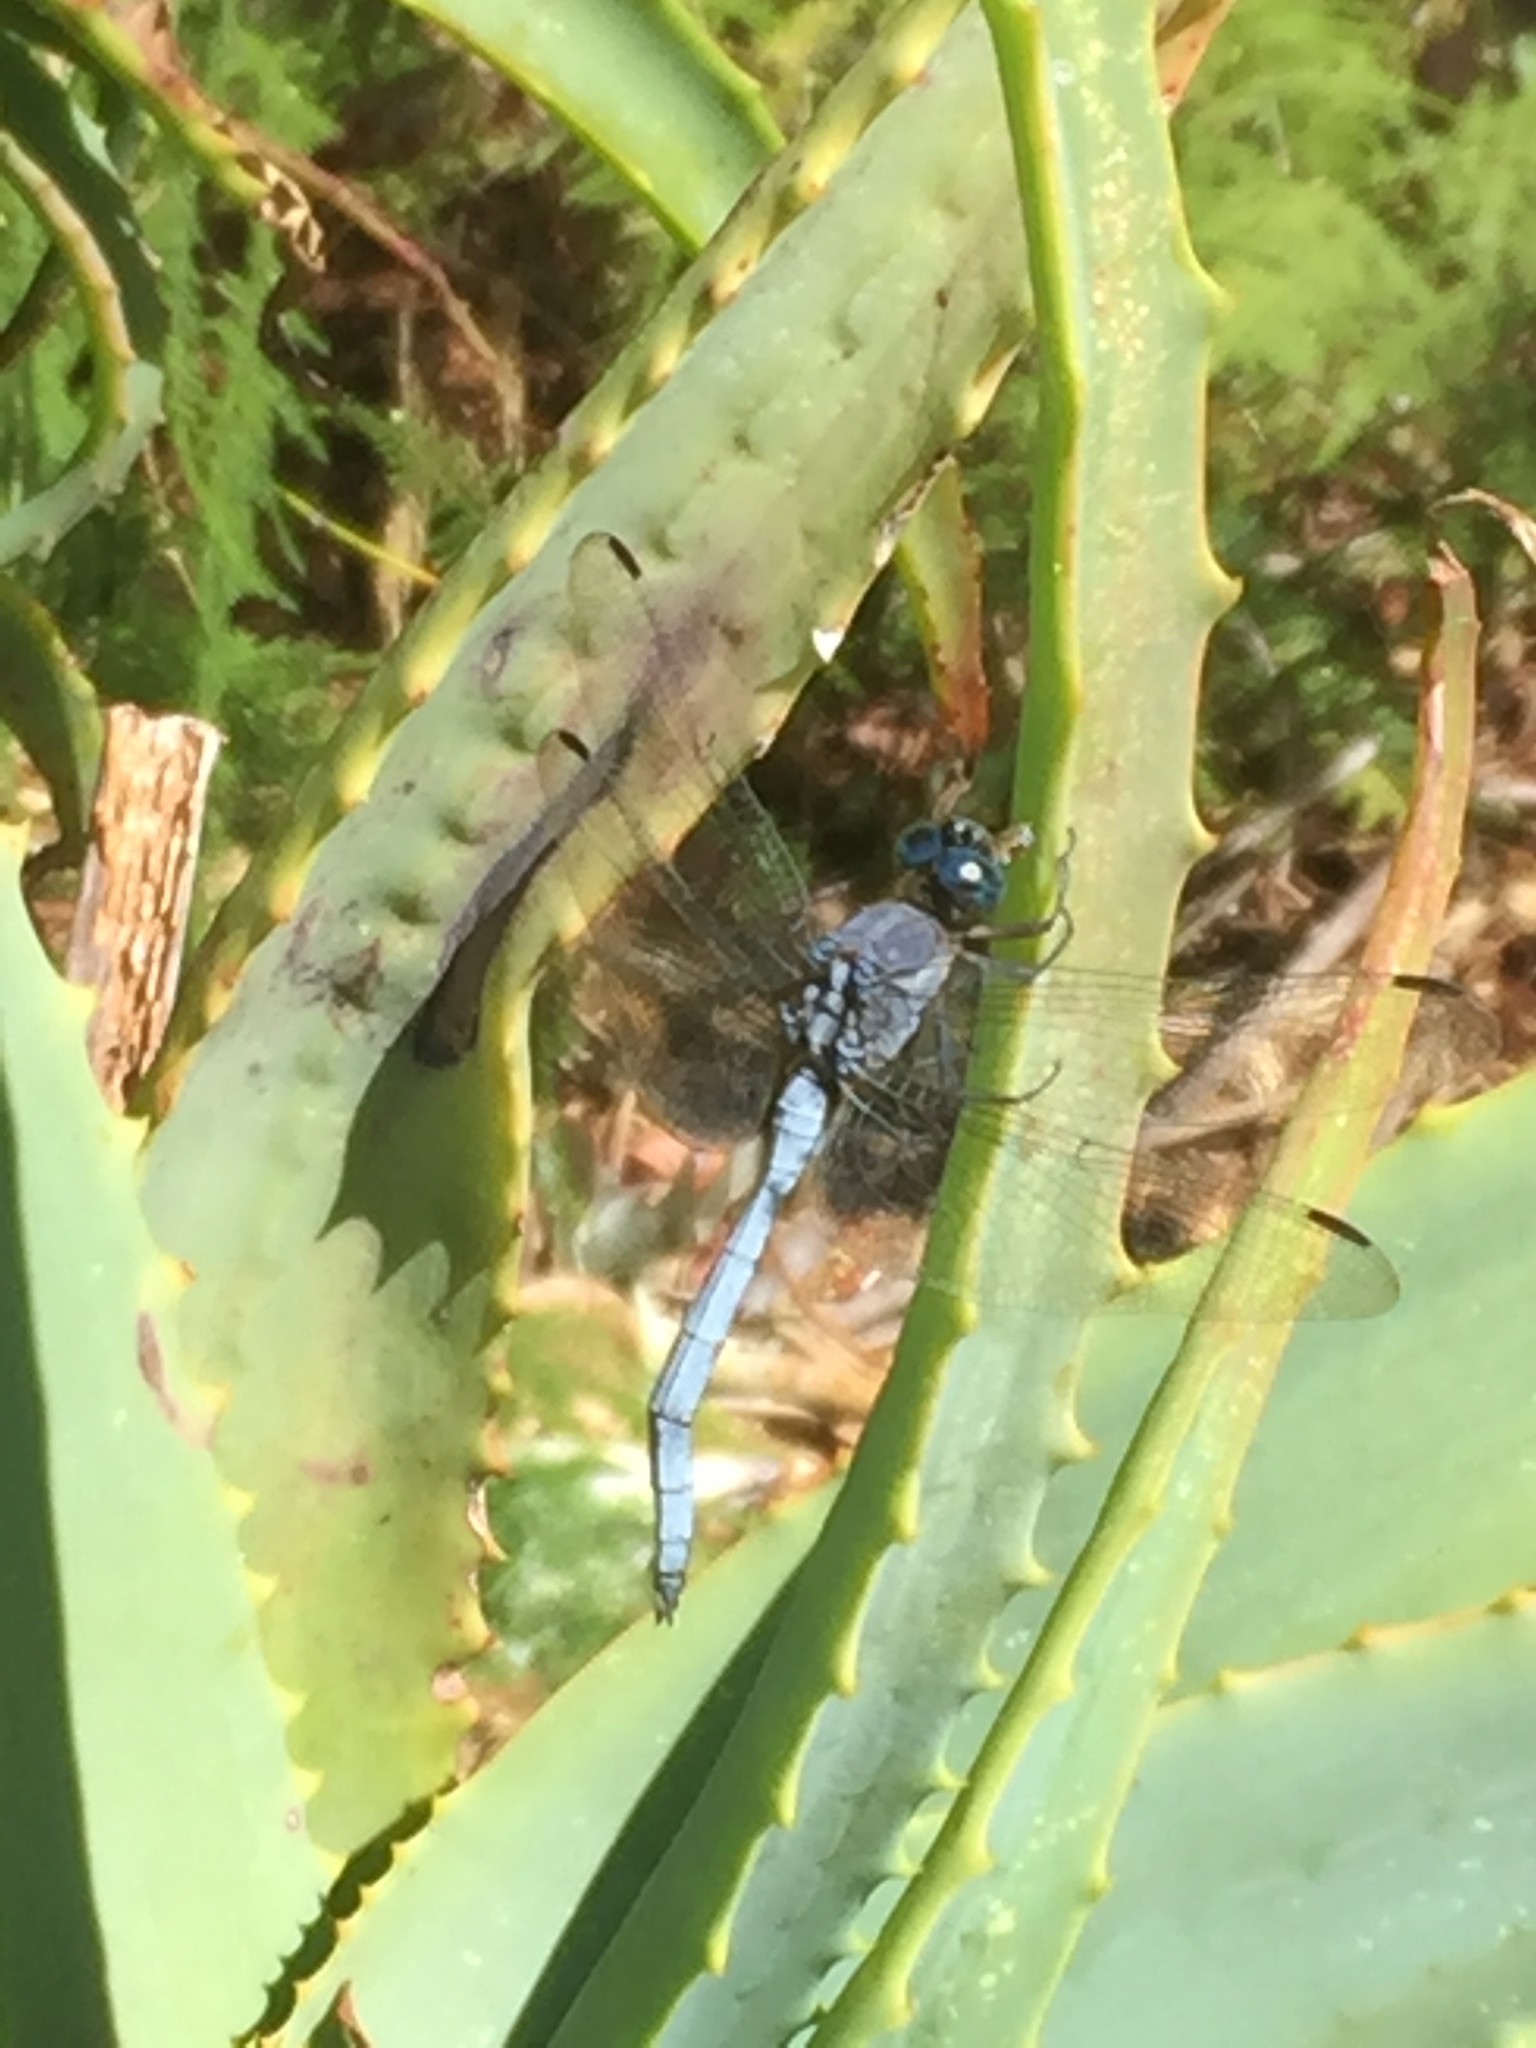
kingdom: Animalia
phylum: Arthropoda
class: Insecta
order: Odonata
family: Libellulidae
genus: Orthetrum
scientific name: Orthetrum julia
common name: Julia skimmer
